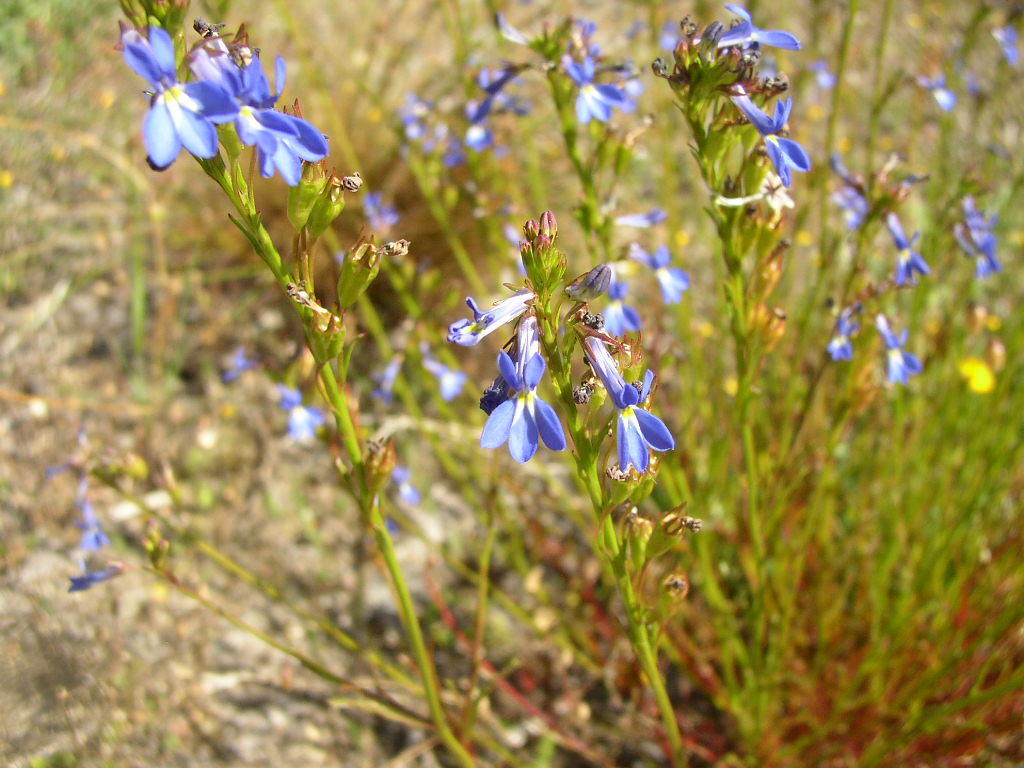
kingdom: Plantae
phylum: Tracheophyta
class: Magnoliopsida
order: Asterales
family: Campanulaceae
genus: Lobelia
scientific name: Lobelia comosa
